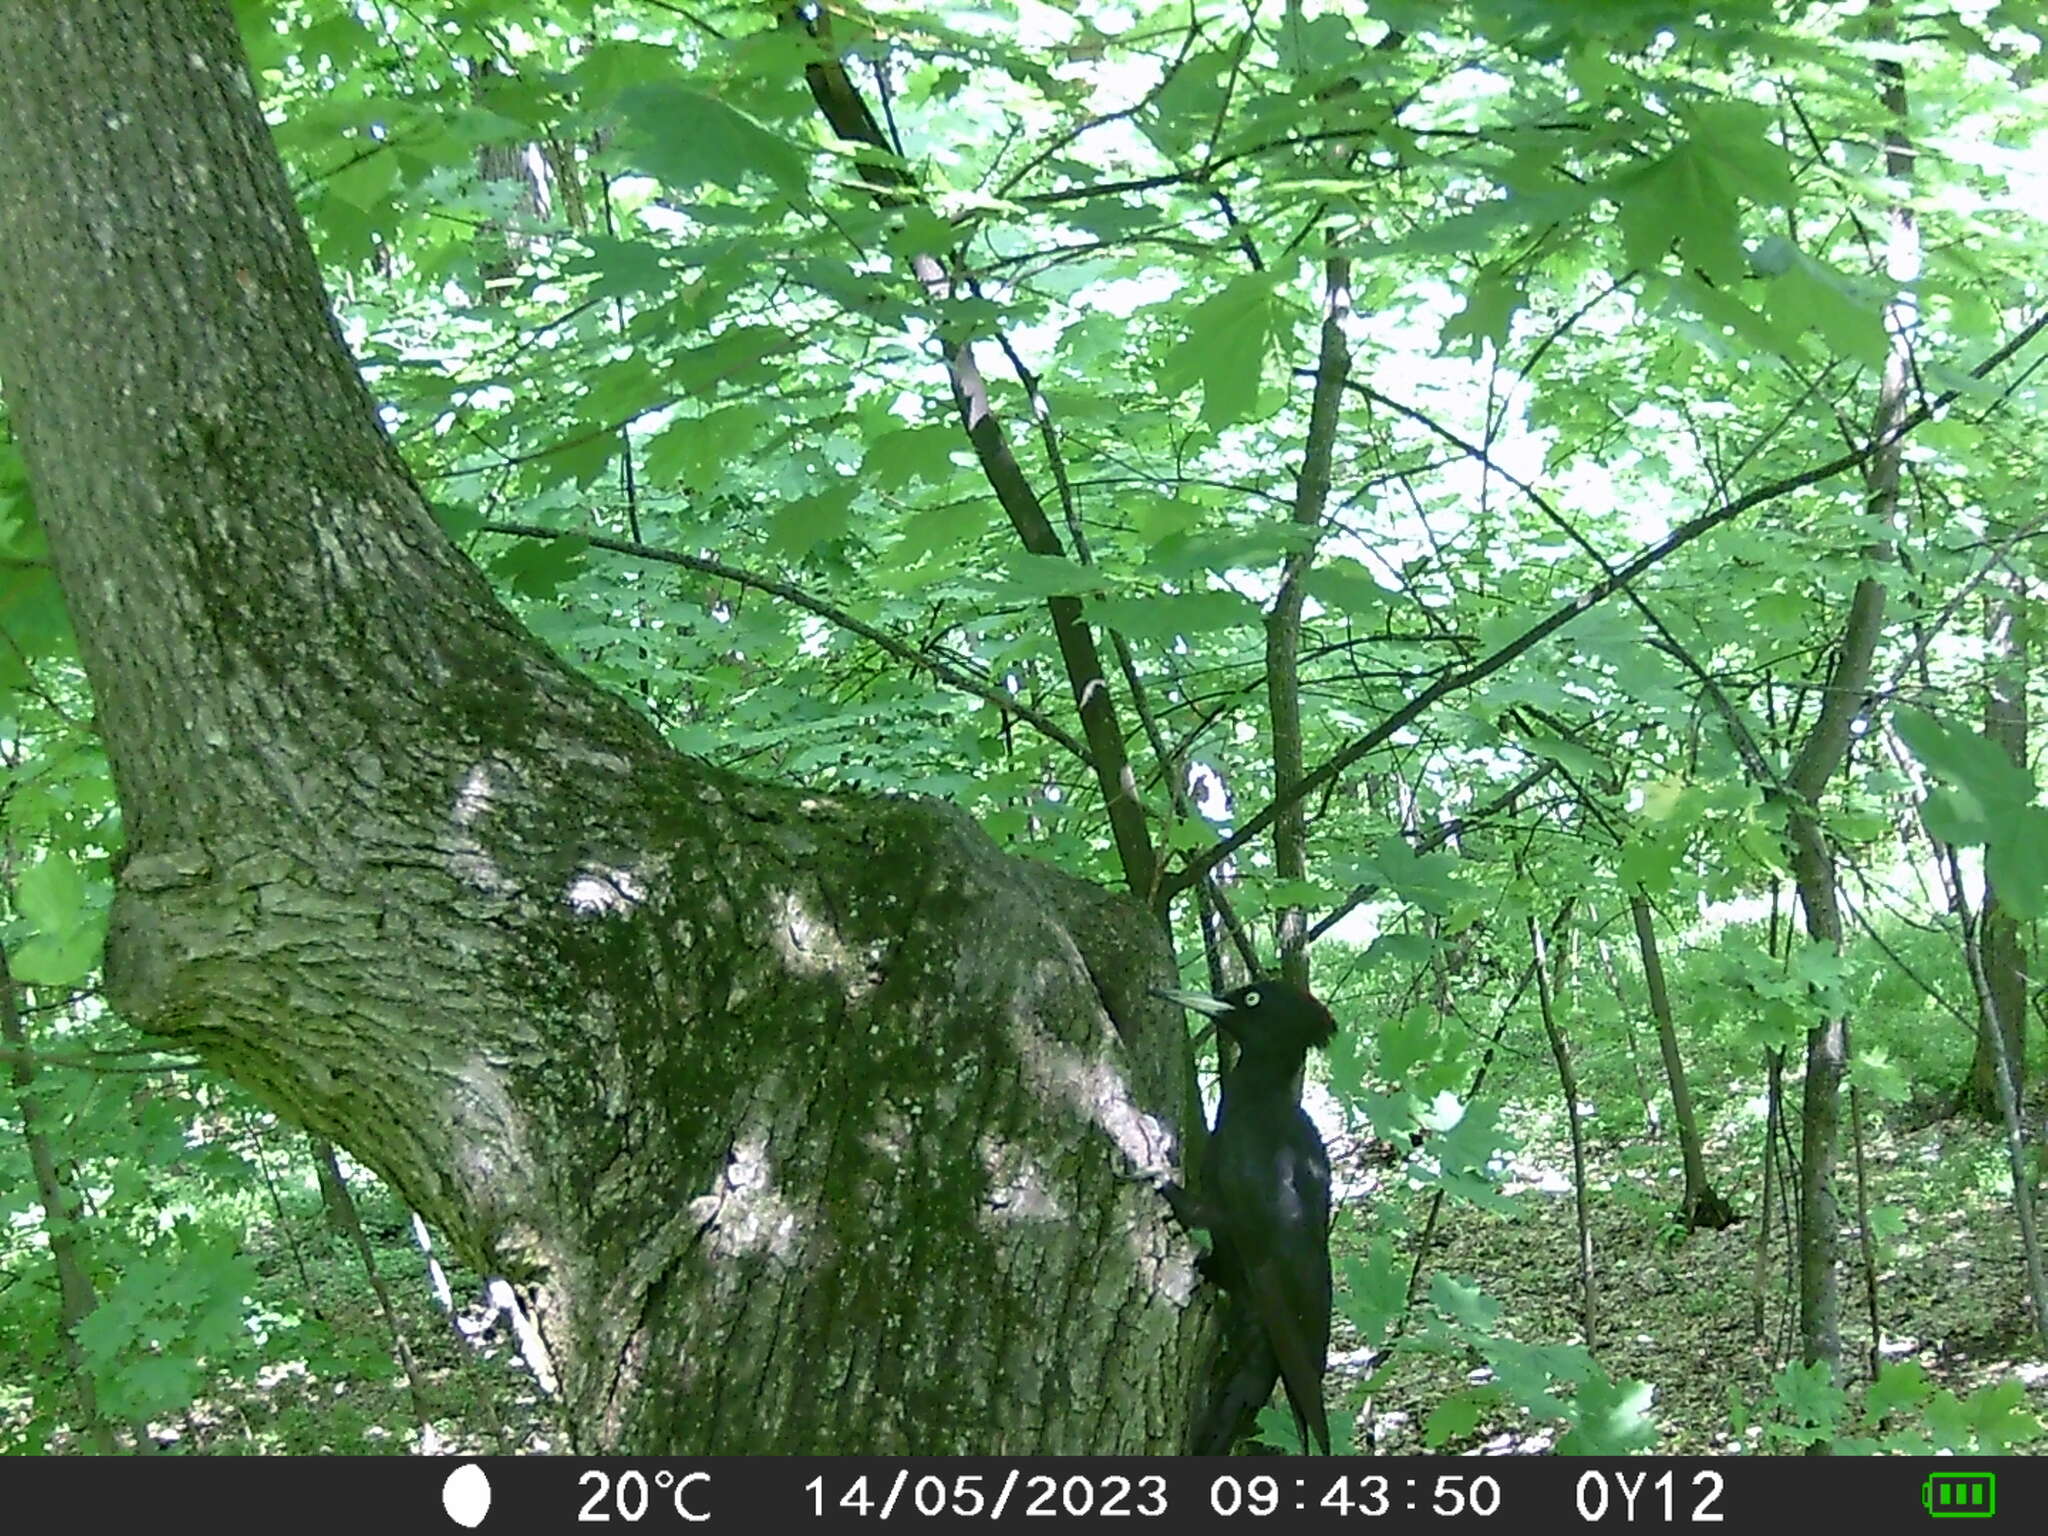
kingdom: Animalia
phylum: Chordata
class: Aves
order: Piciformes
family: Picidae
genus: Dryocopus
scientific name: Dryocopus martius
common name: Black woodpecker
